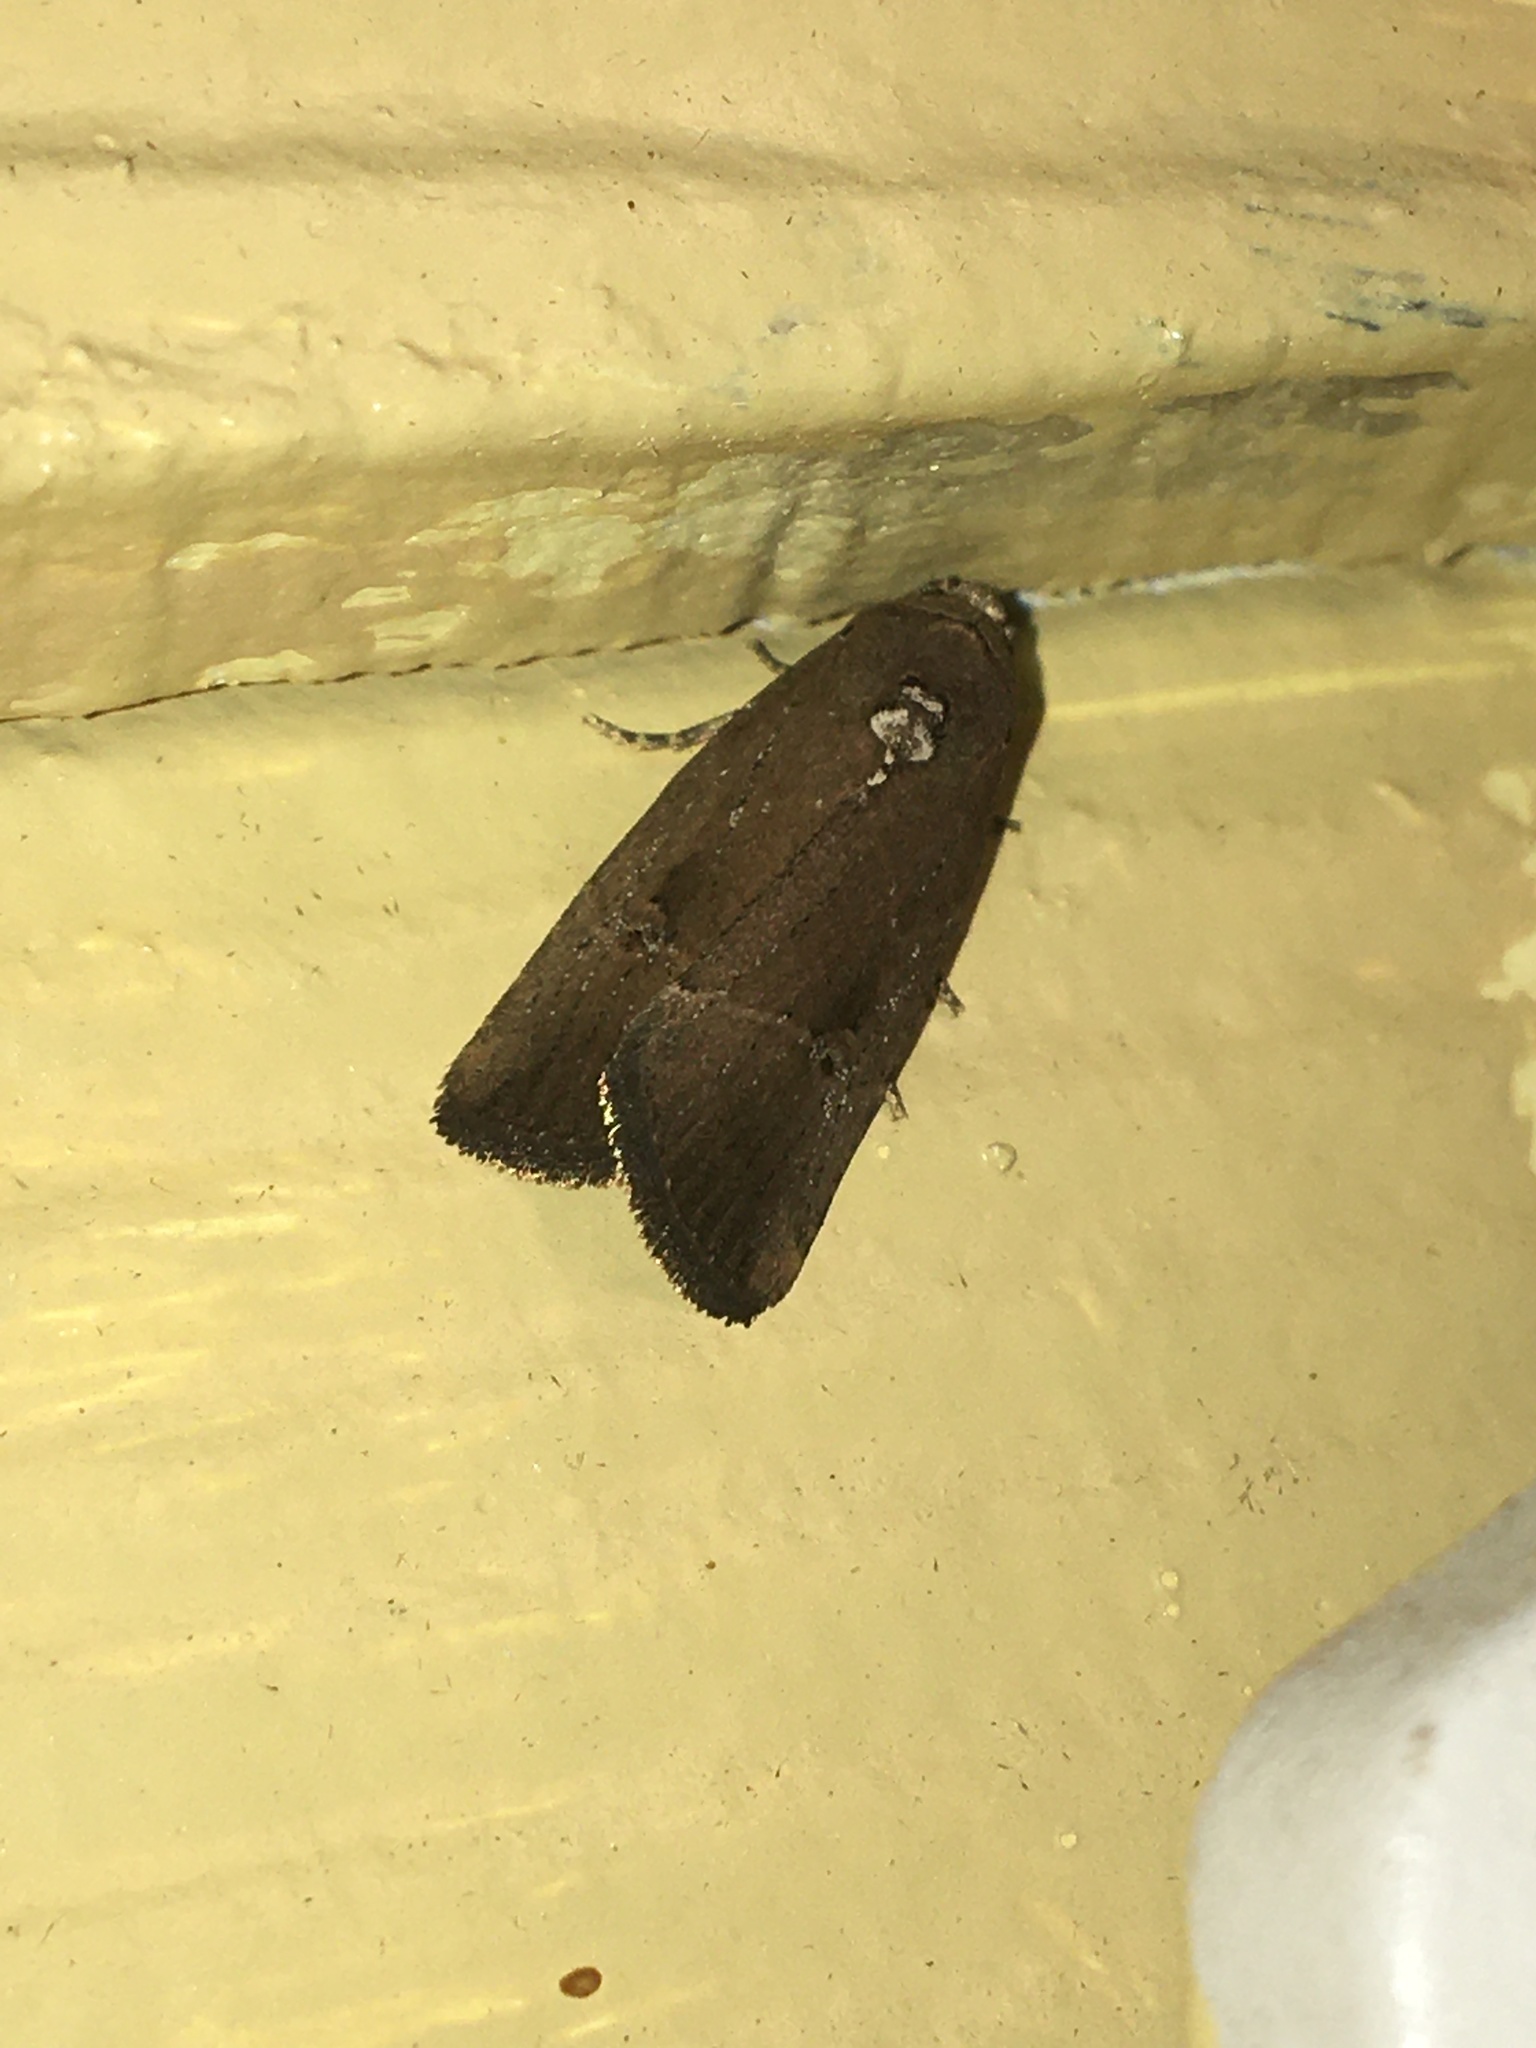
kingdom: Animalia
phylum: Arthropoda
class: Insecta
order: Lepidoptera
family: Noctuidae
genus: Elaphria
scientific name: Elaphria nucicolora
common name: Sugarcane midget moth
